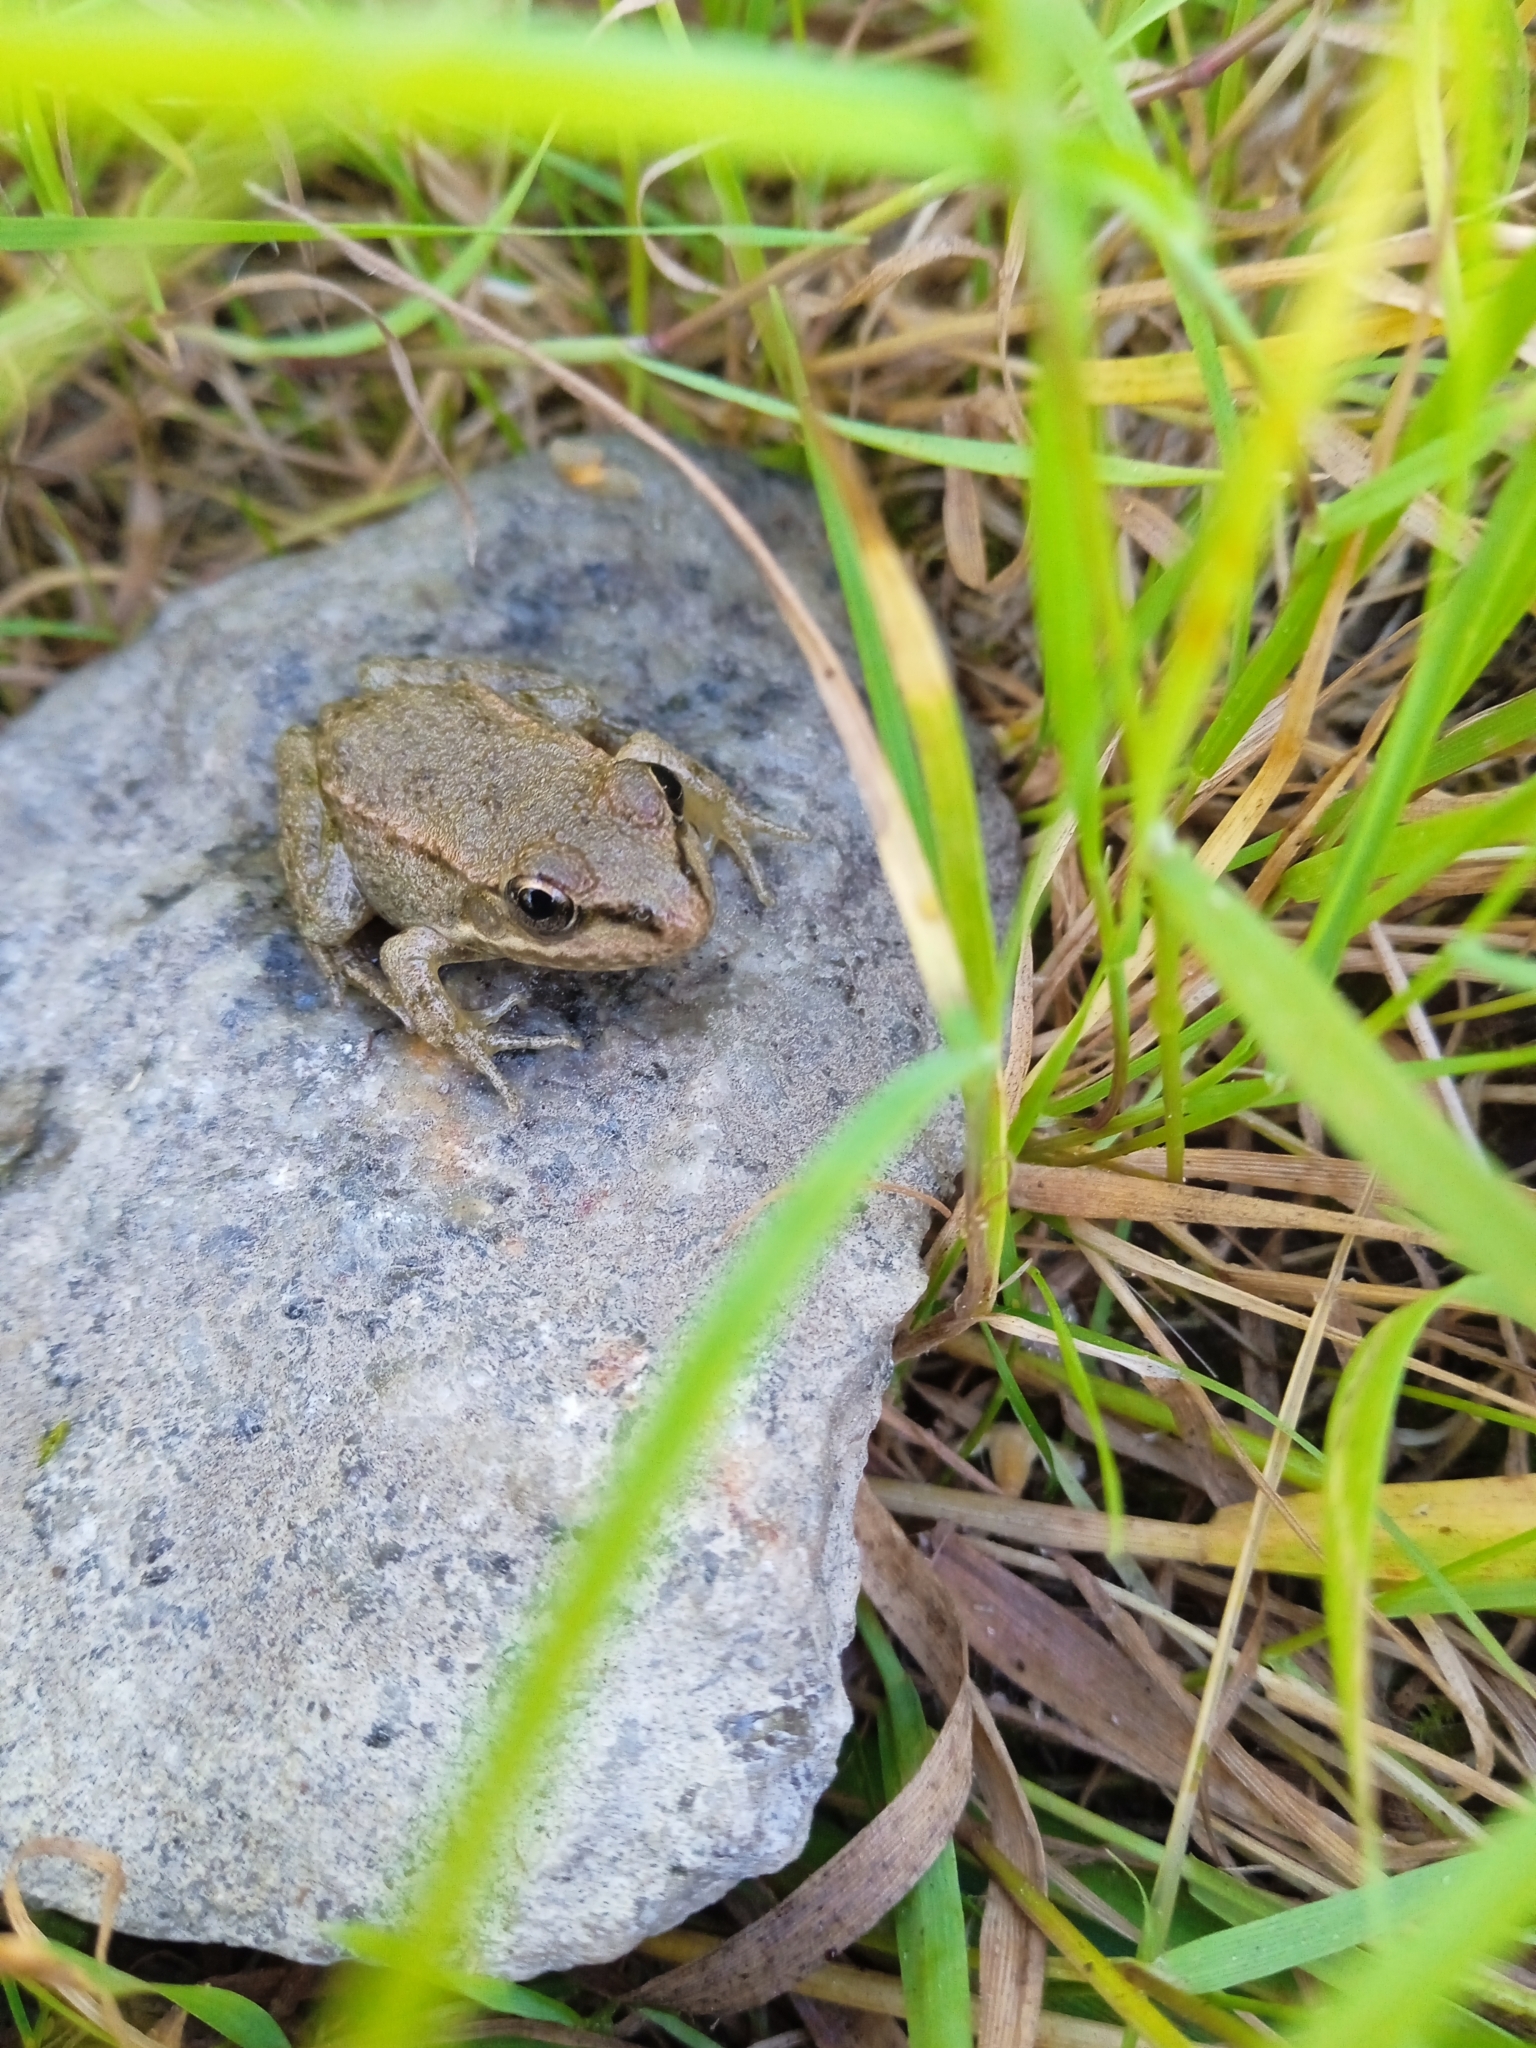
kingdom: Animalia
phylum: Chordata
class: Amphibia
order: Anura
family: Ranidae
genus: Pelophylax
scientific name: Pelophylax ridibundus
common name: Marsh frog
